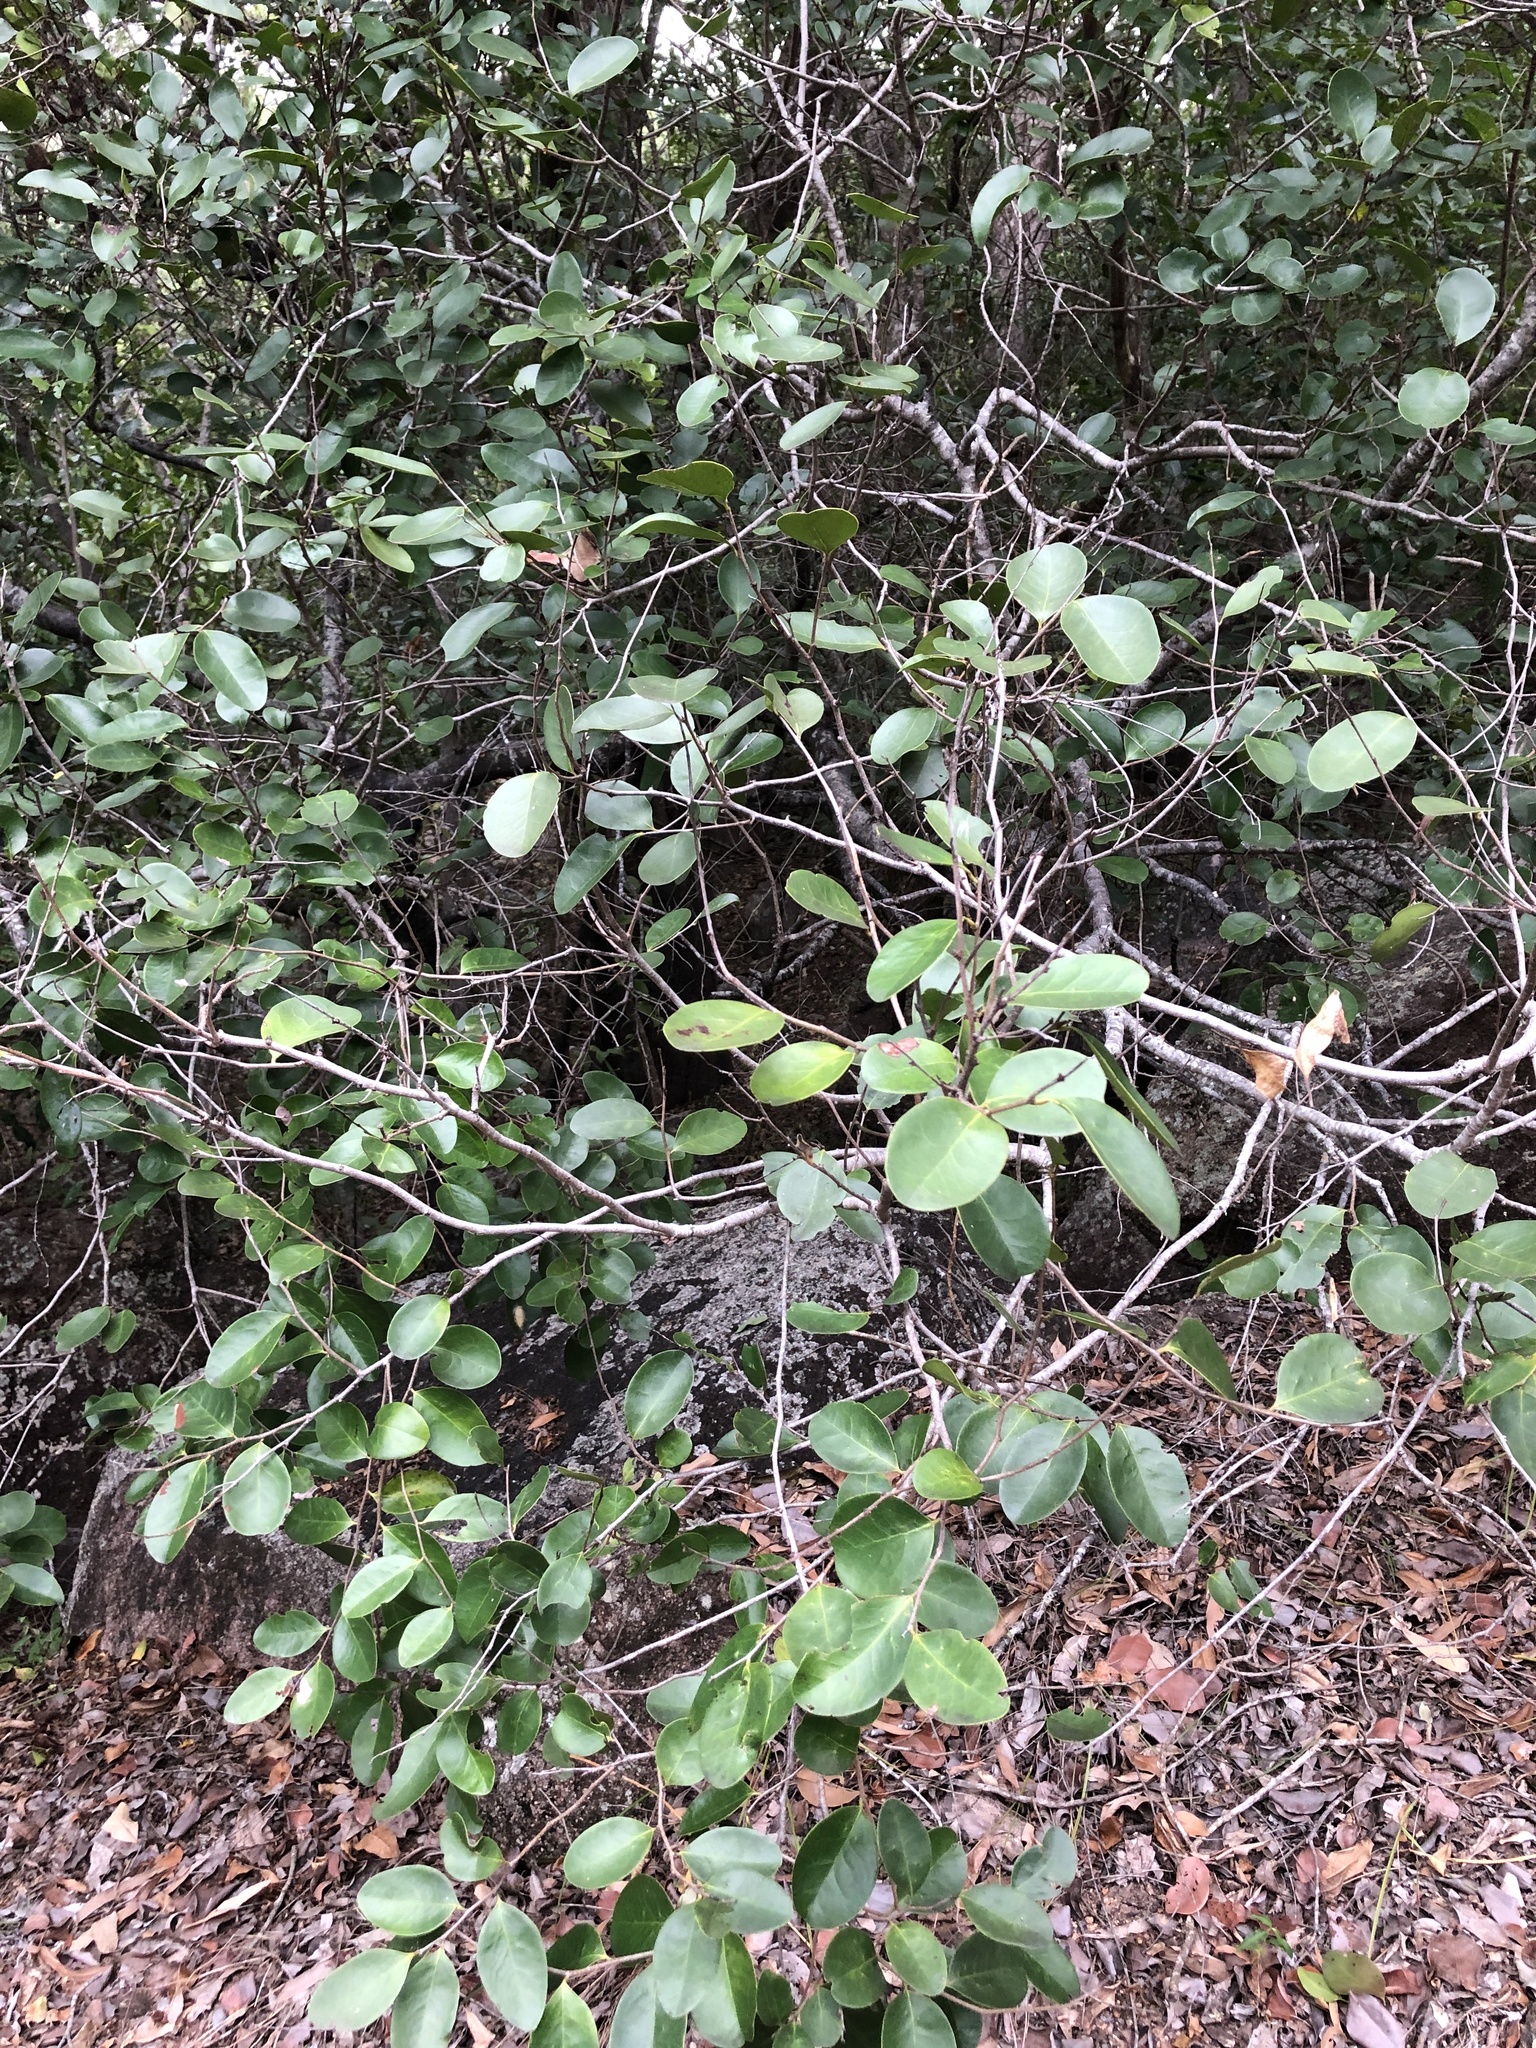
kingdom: Plantae
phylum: Tracheophyta
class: Magnoliopsida
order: Ericales
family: Ebenaceae
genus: Diospyros
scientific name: Diospyros geminata
